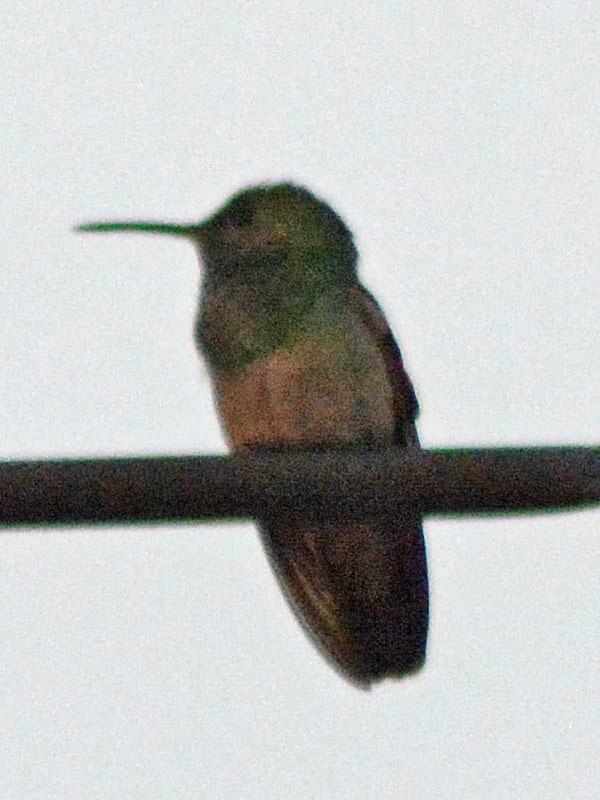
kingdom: Animalia
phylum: Chordata
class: Aves
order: Apodiformes
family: Trochilidae
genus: Saucerottia
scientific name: Saucerottia beryllina
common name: Berylline hummingbird
